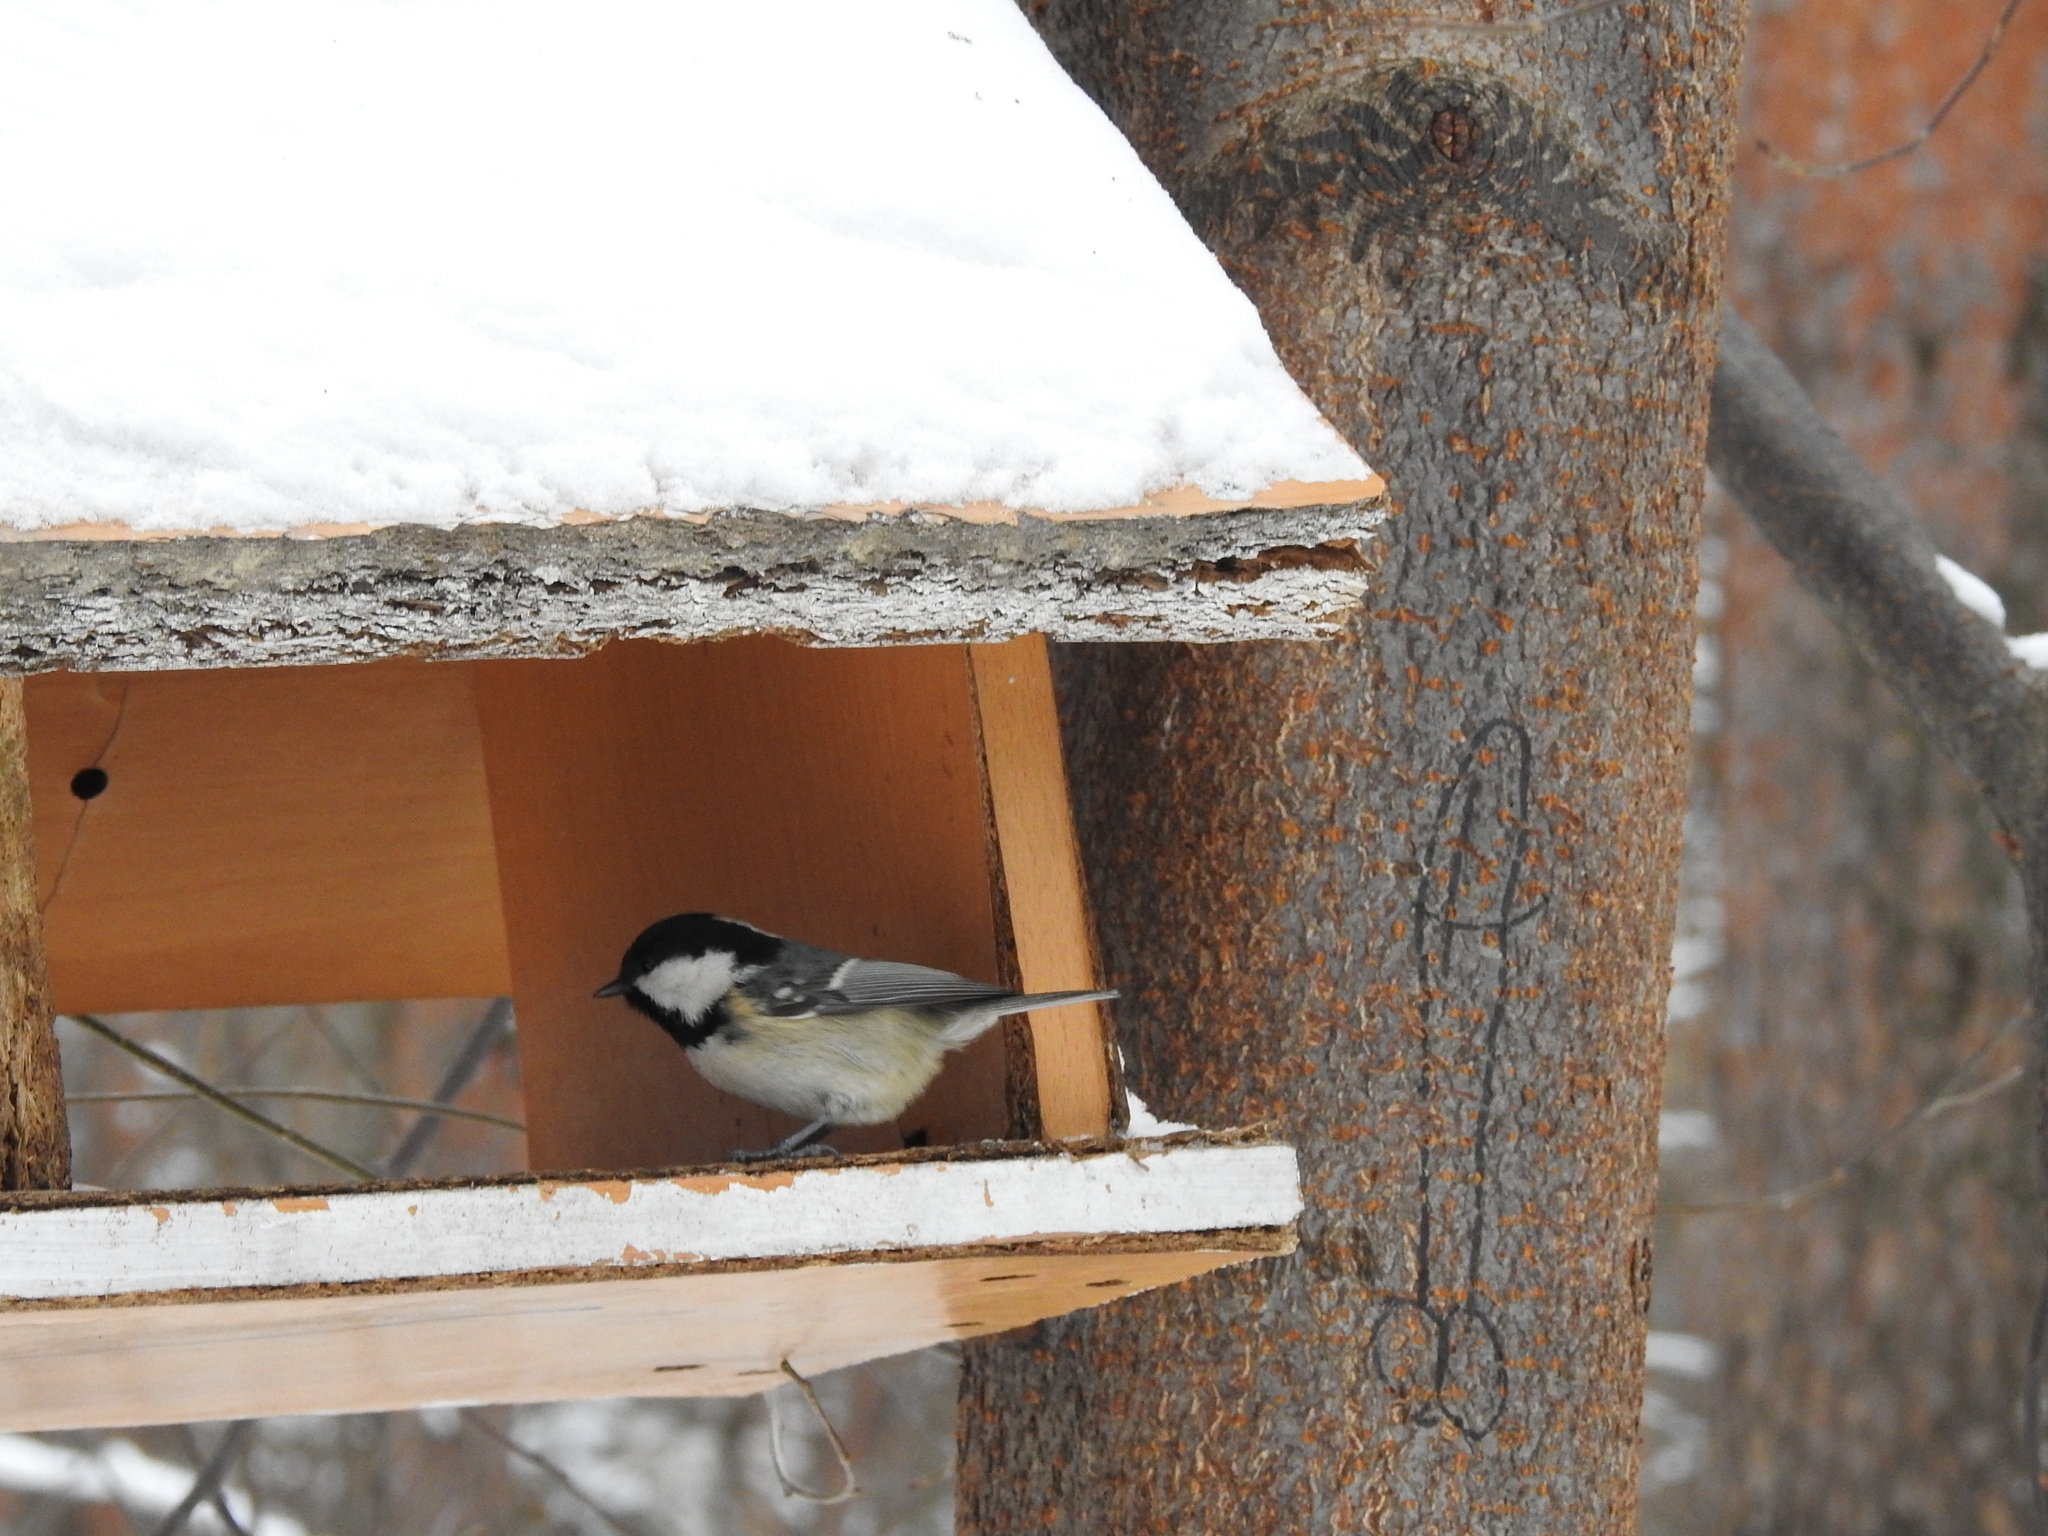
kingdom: Animalia
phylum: Chordata
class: Aves
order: Passeriformes
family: Paridae
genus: Periparus
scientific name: Periparus ater
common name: Coal tit
